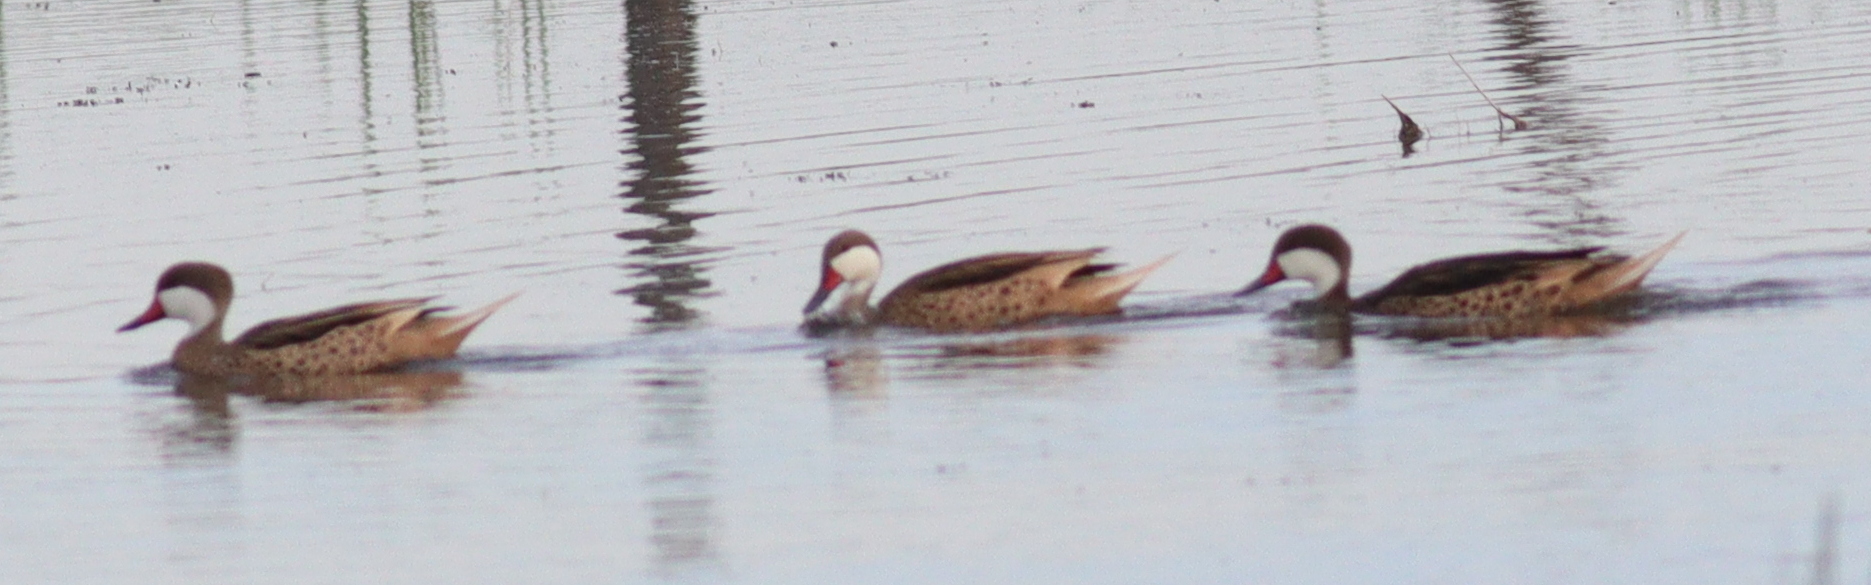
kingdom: Animalia
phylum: Chordata
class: Aves
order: Anseriformes
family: Anatidae
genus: Anas
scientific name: Anas bahamensis
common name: White-cheeked pintail
